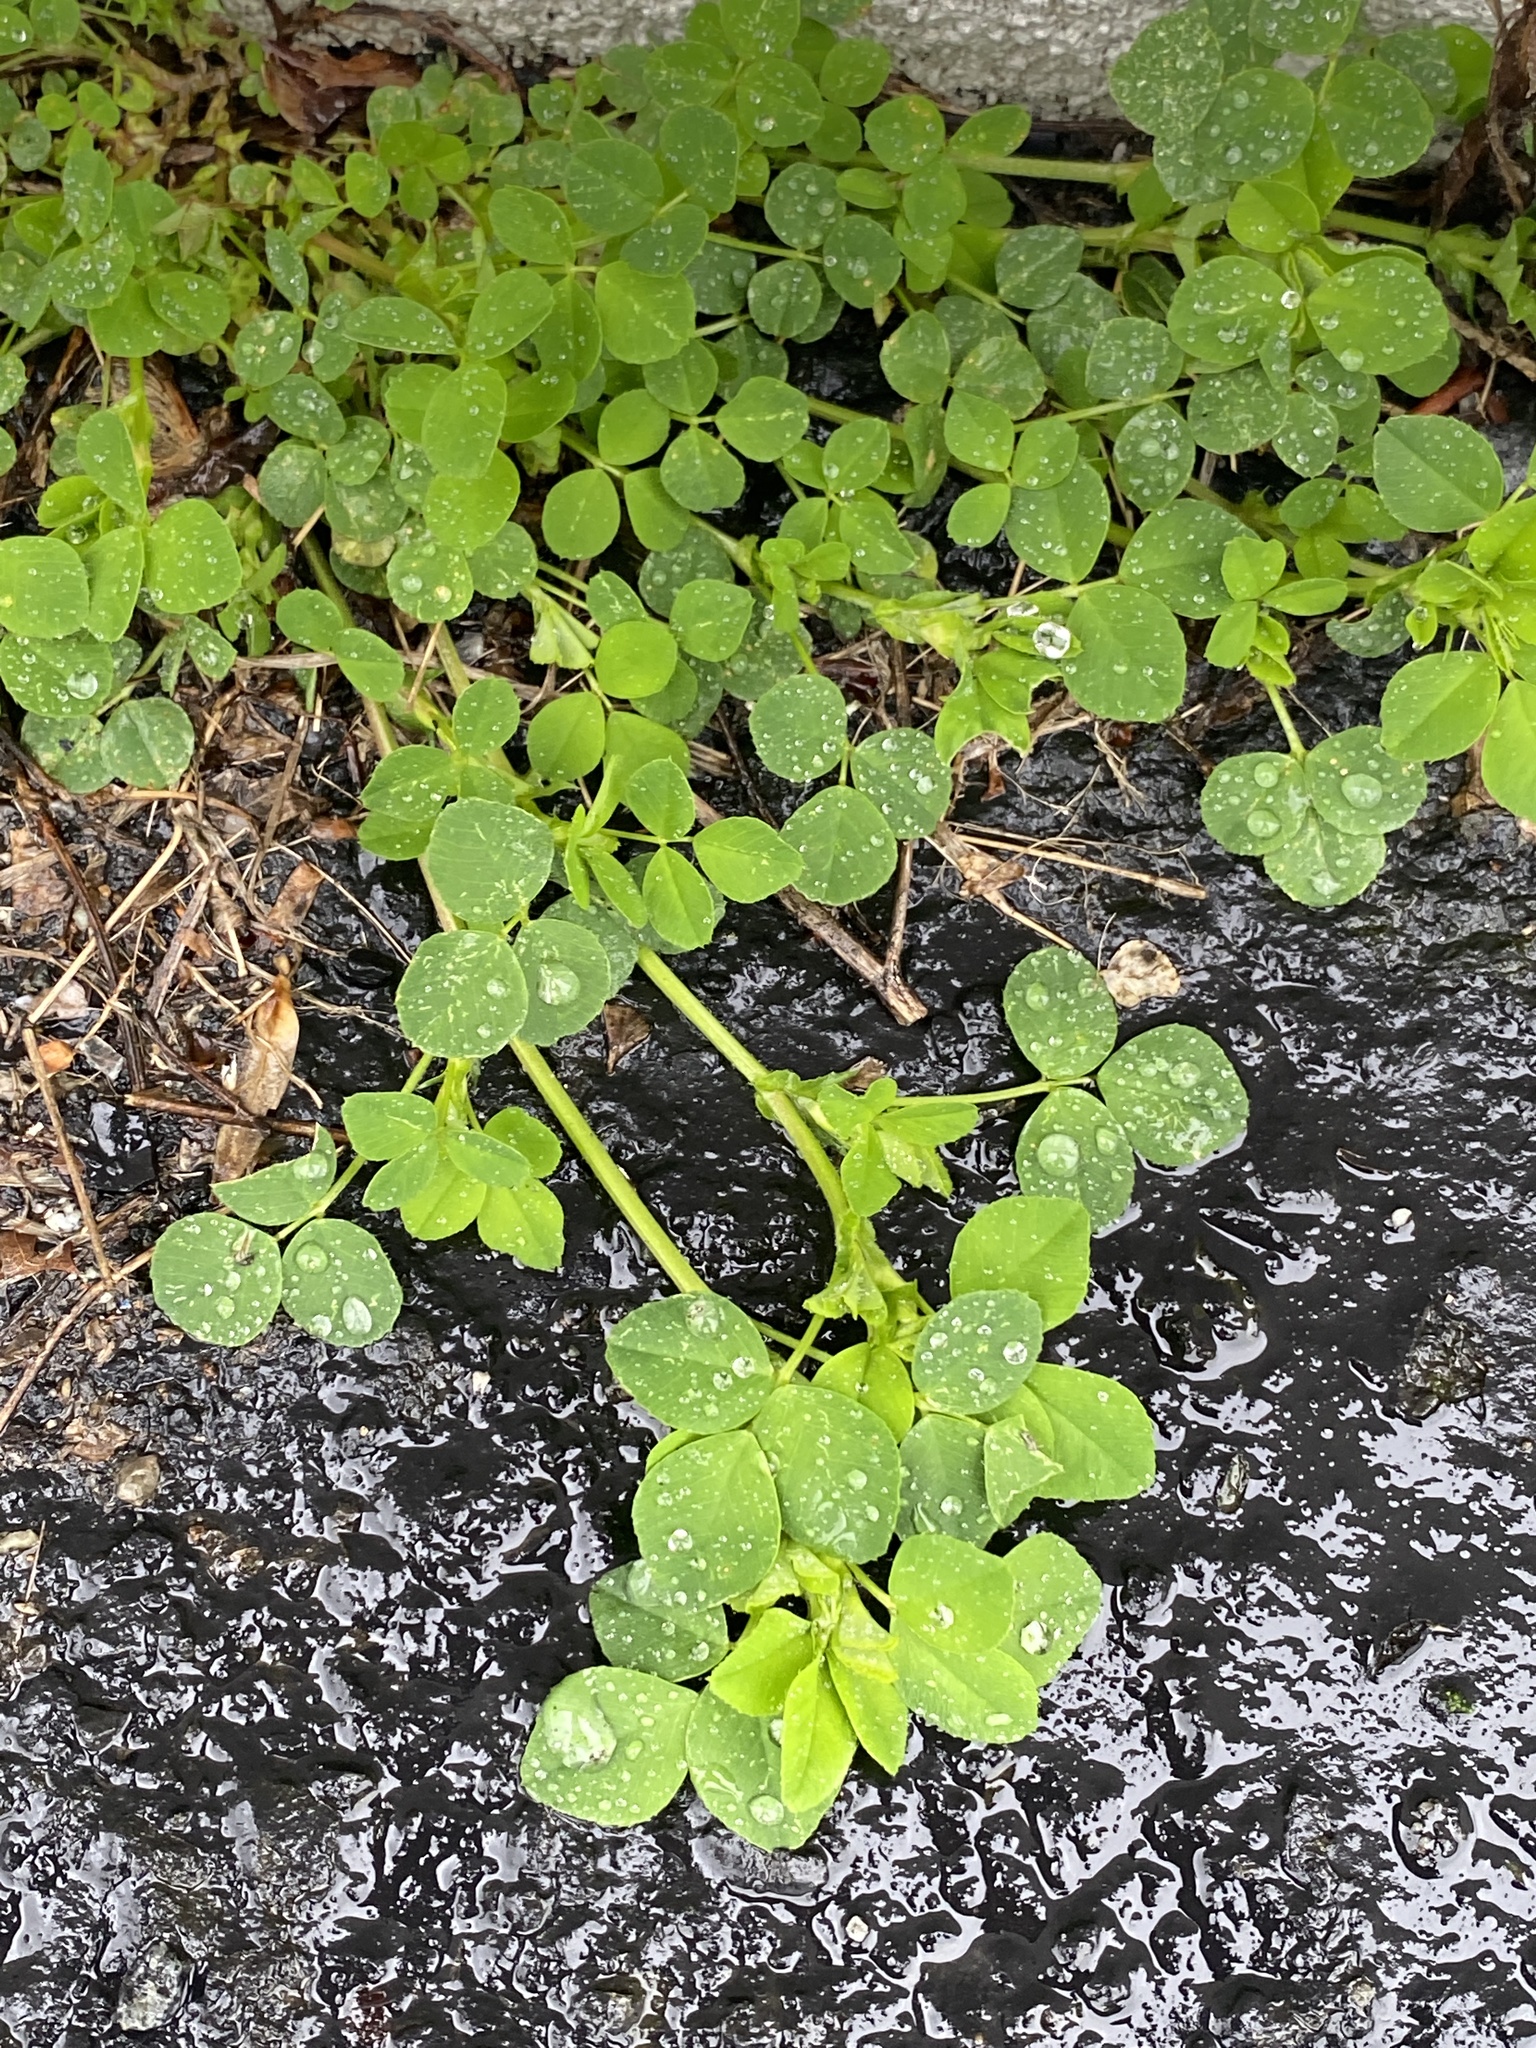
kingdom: Plantae
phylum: Tracheophyta
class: Magnoliopsida
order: Fabales
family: Fabaceae
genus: Medicago
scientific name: Medicago lupulina
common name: Black medick
